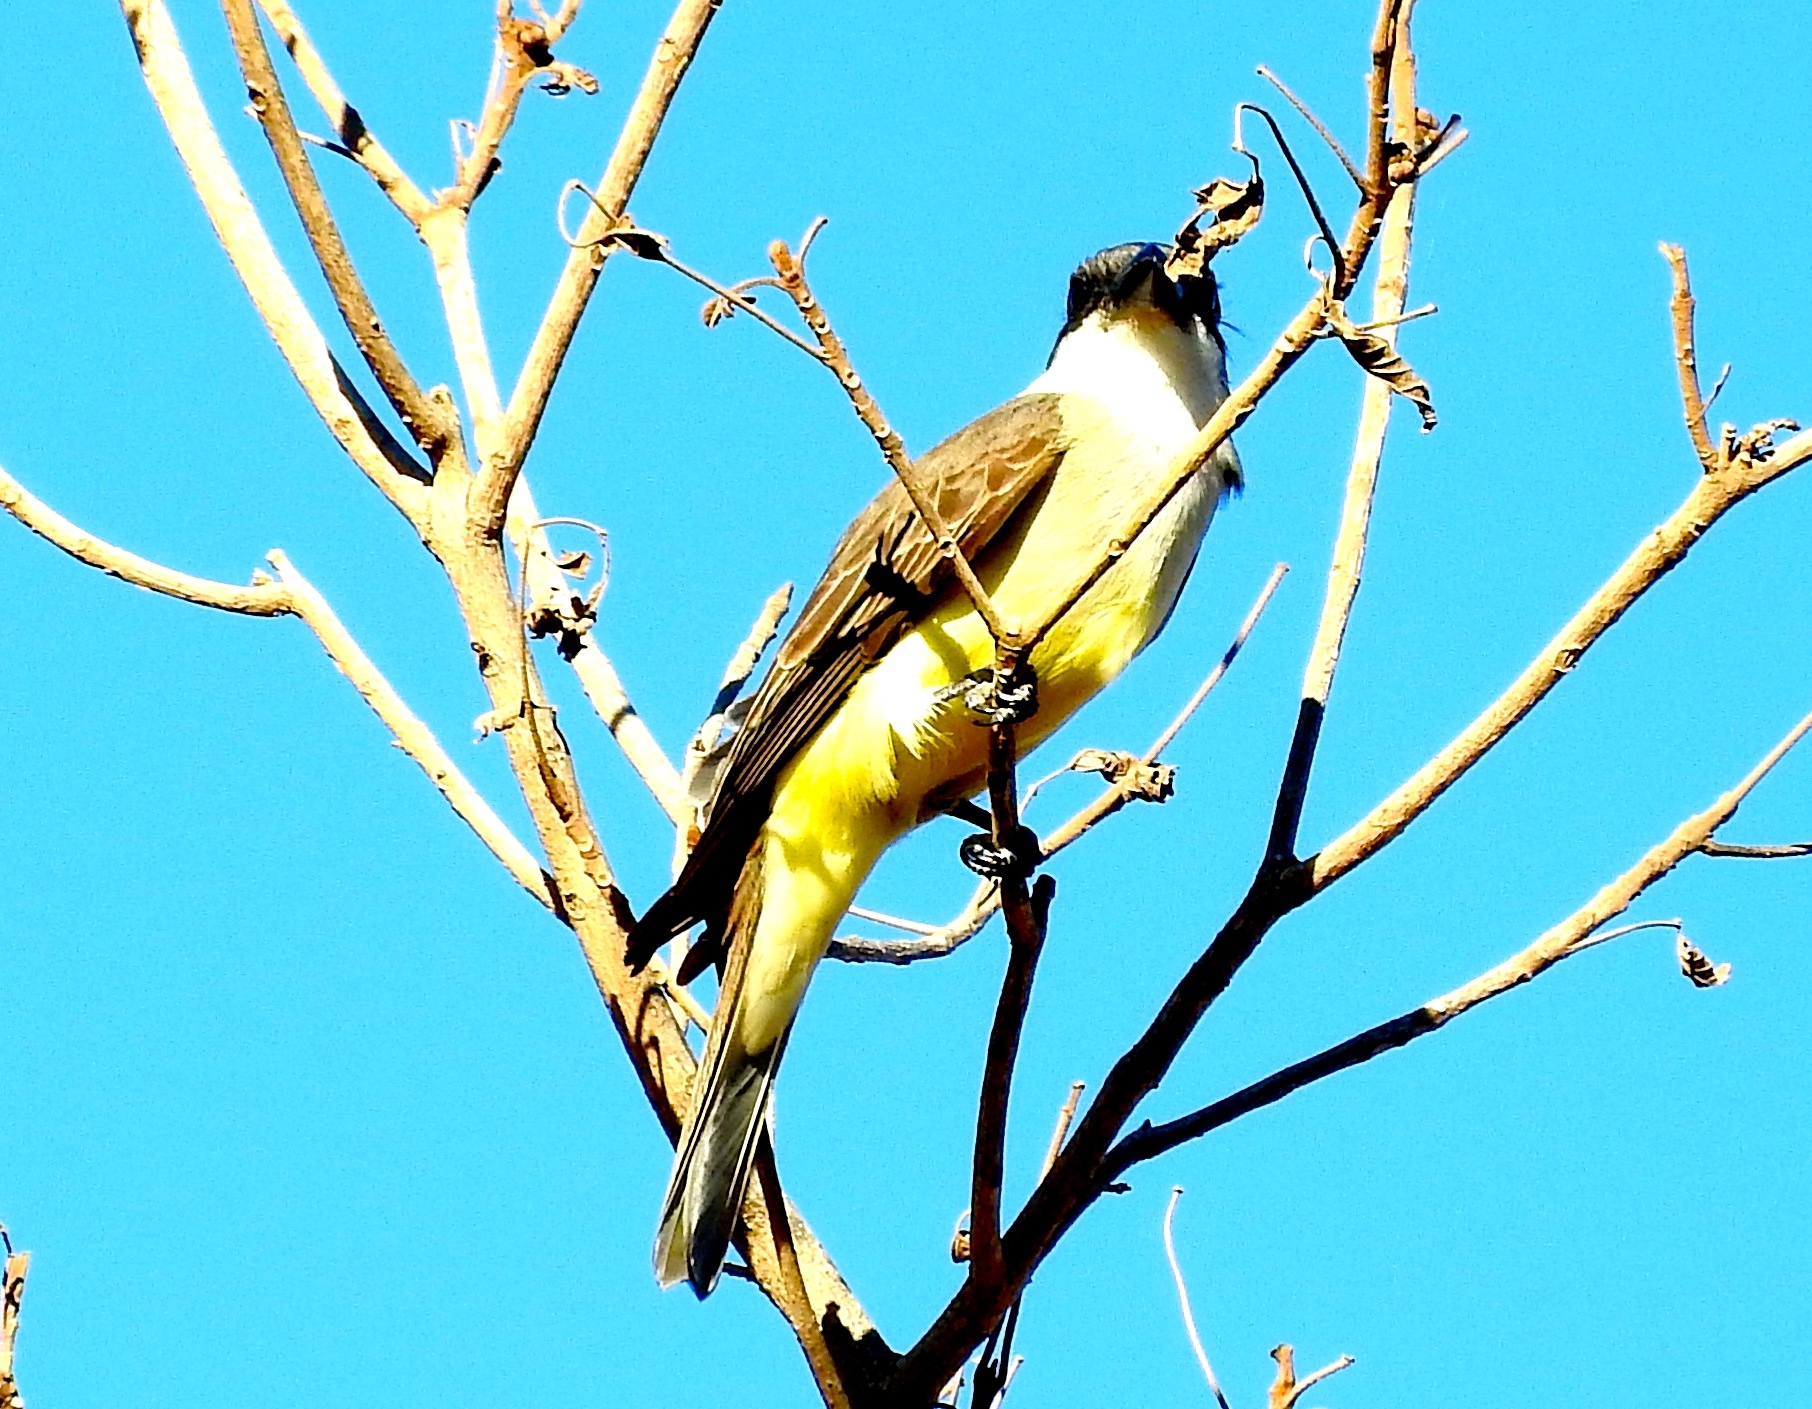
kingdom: Animalia
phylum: Chordata
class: Aves
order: Passeriformes
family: Tyrannidae
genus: Tyrannus
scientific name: Tyrannus crassirostris
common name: Thick-billed kingbird
